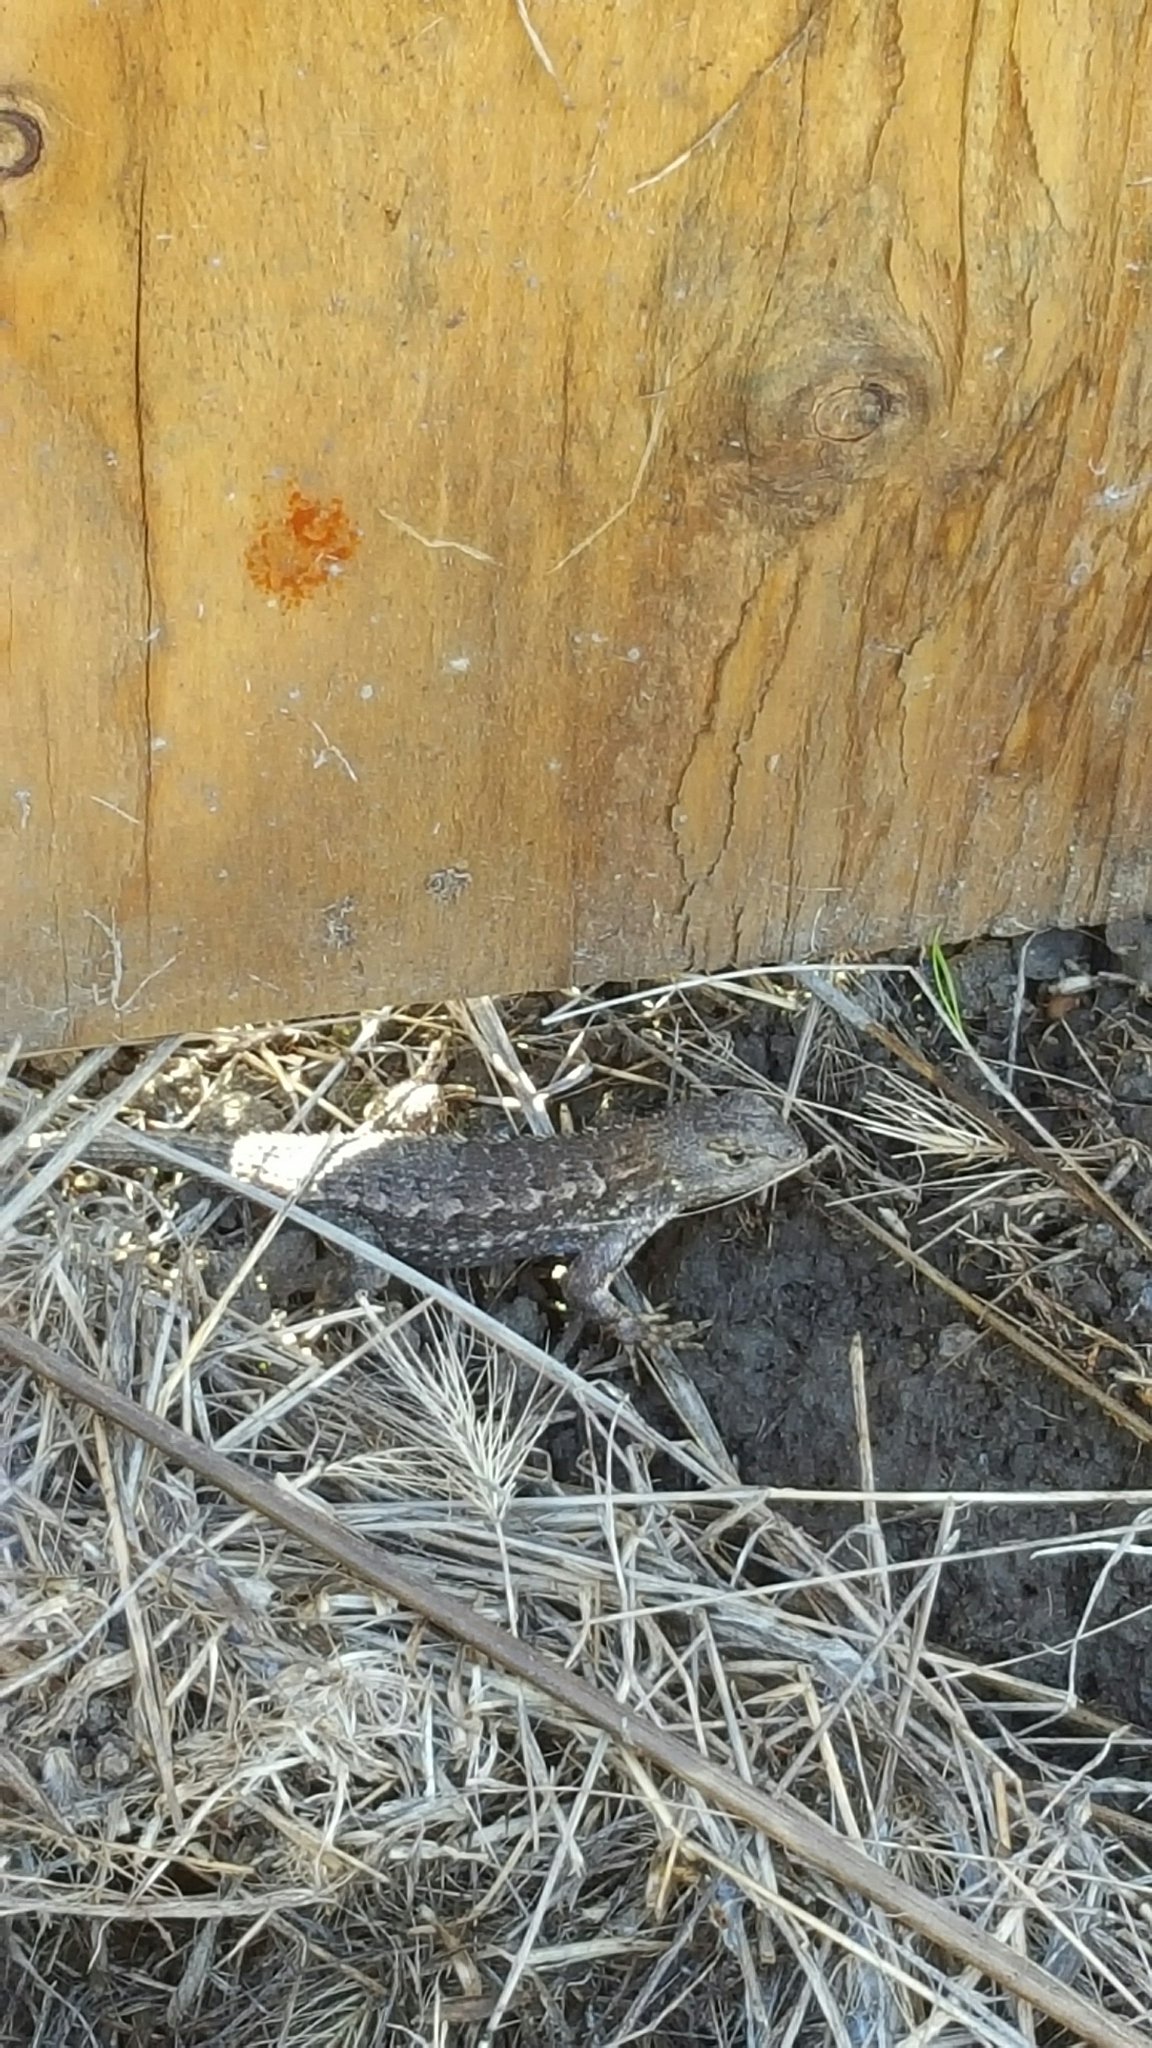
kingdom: Animalia
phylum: Chordata
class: Squamata
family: Phrynosomatidae
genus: Sceloporus
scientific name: Sceloporus occidentalis
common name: Western fence lizard
